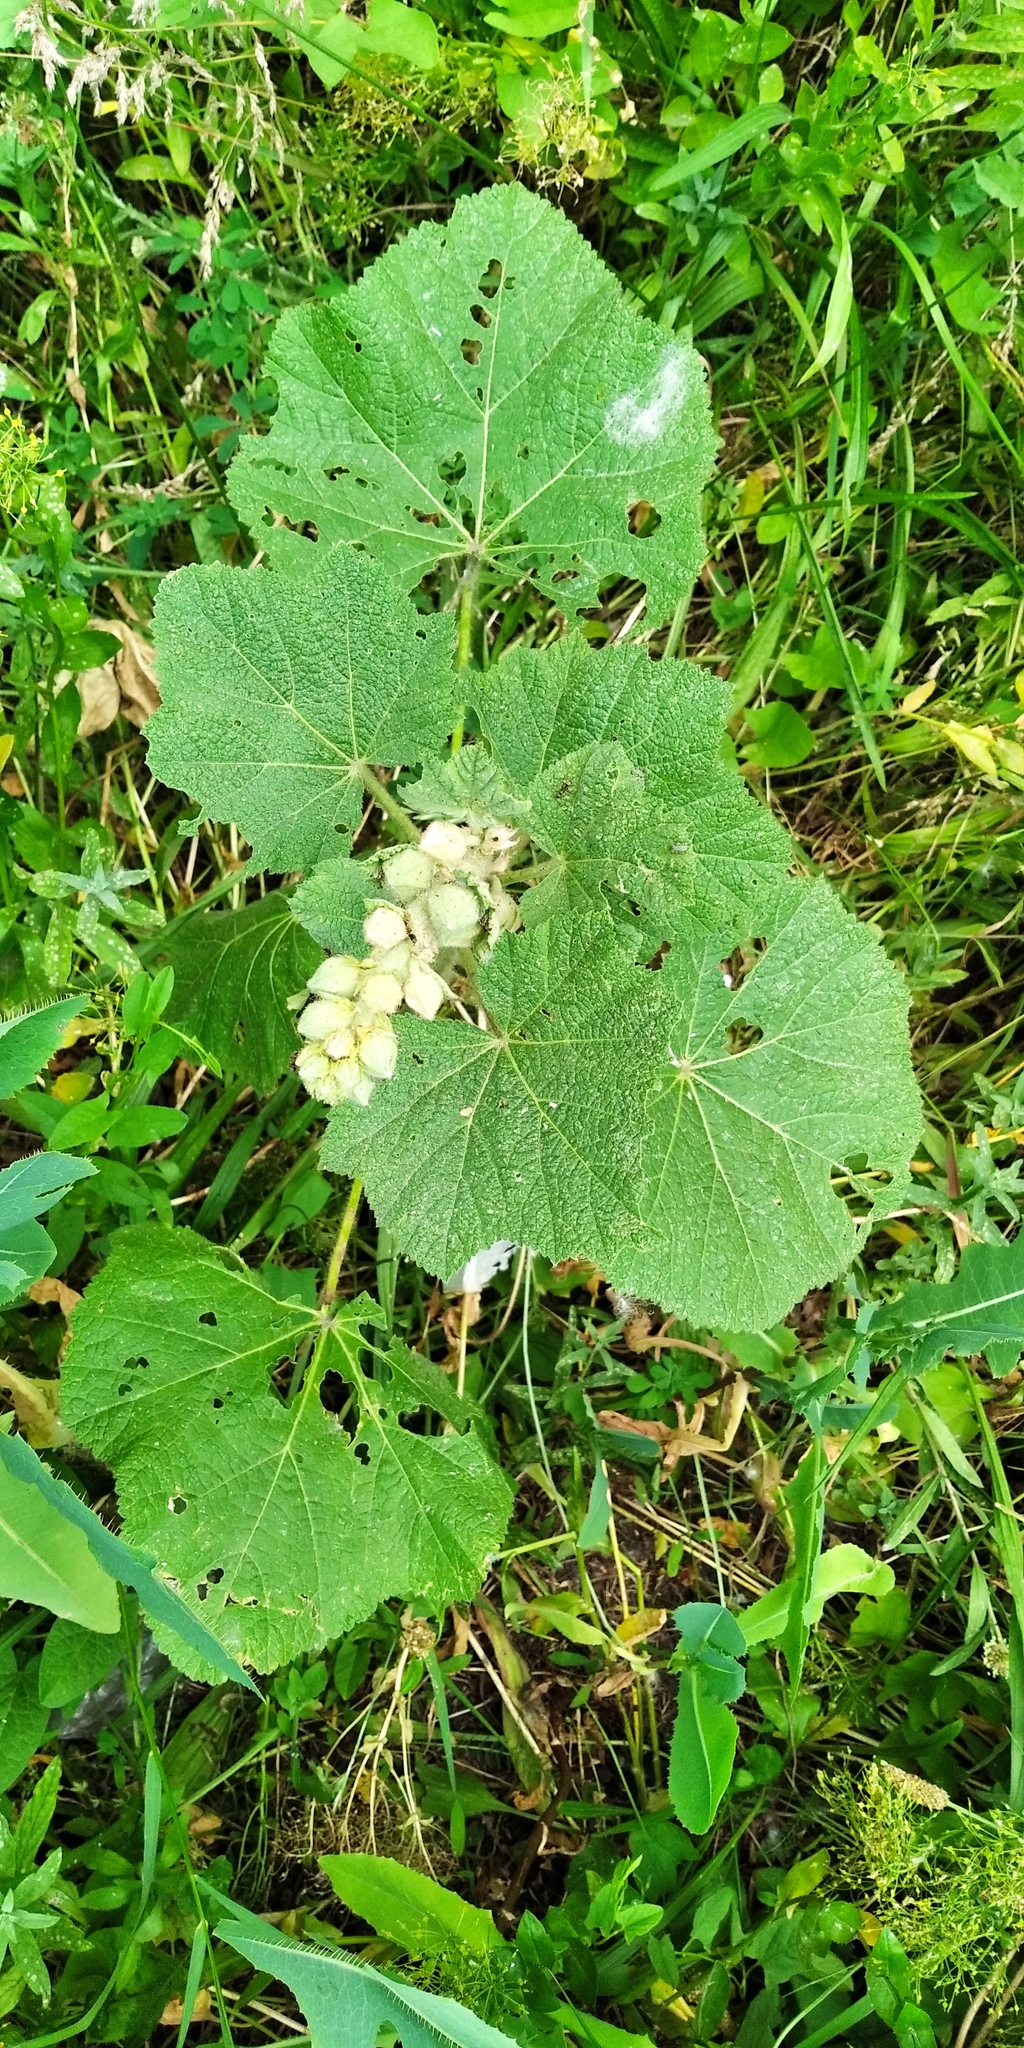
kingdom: Plantae
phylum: Tracheophyta
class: Magnoliopsida
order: Malvales
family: Malvaceae
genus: Alcea
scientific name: Alcea rosea
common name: Hollyhock
